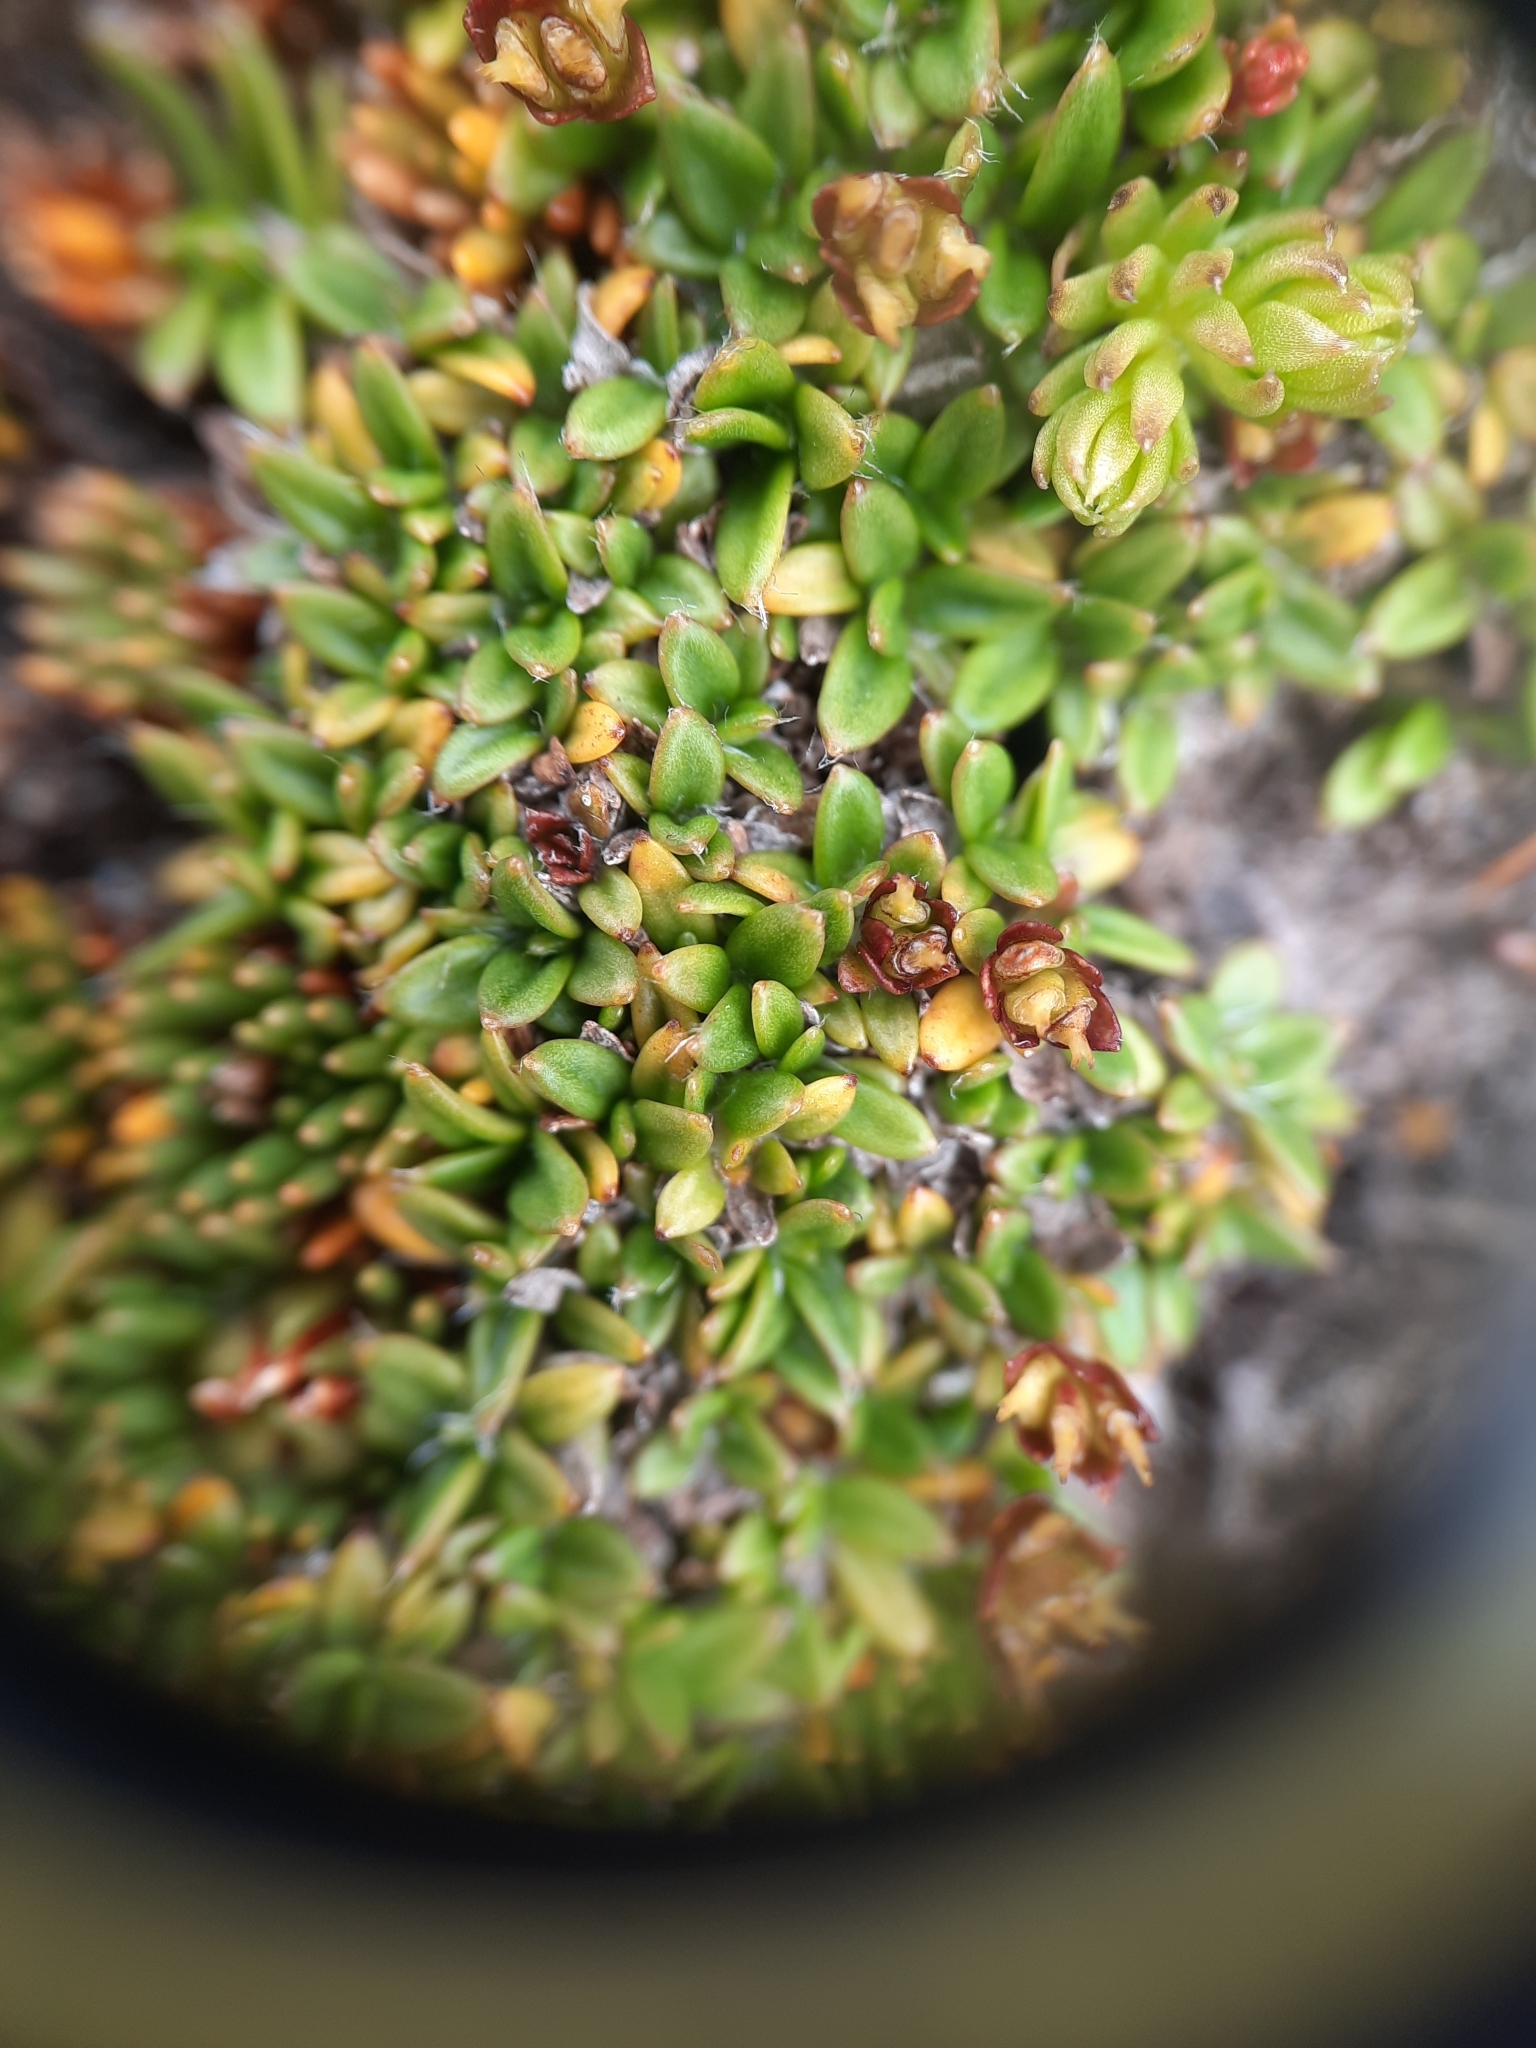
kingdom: Plantae
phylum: Tracheophyta
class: Magnoliopsida
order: Apiales
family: Apiaceae
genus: Actinotus
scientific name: Actinotus novae-zealandiae
